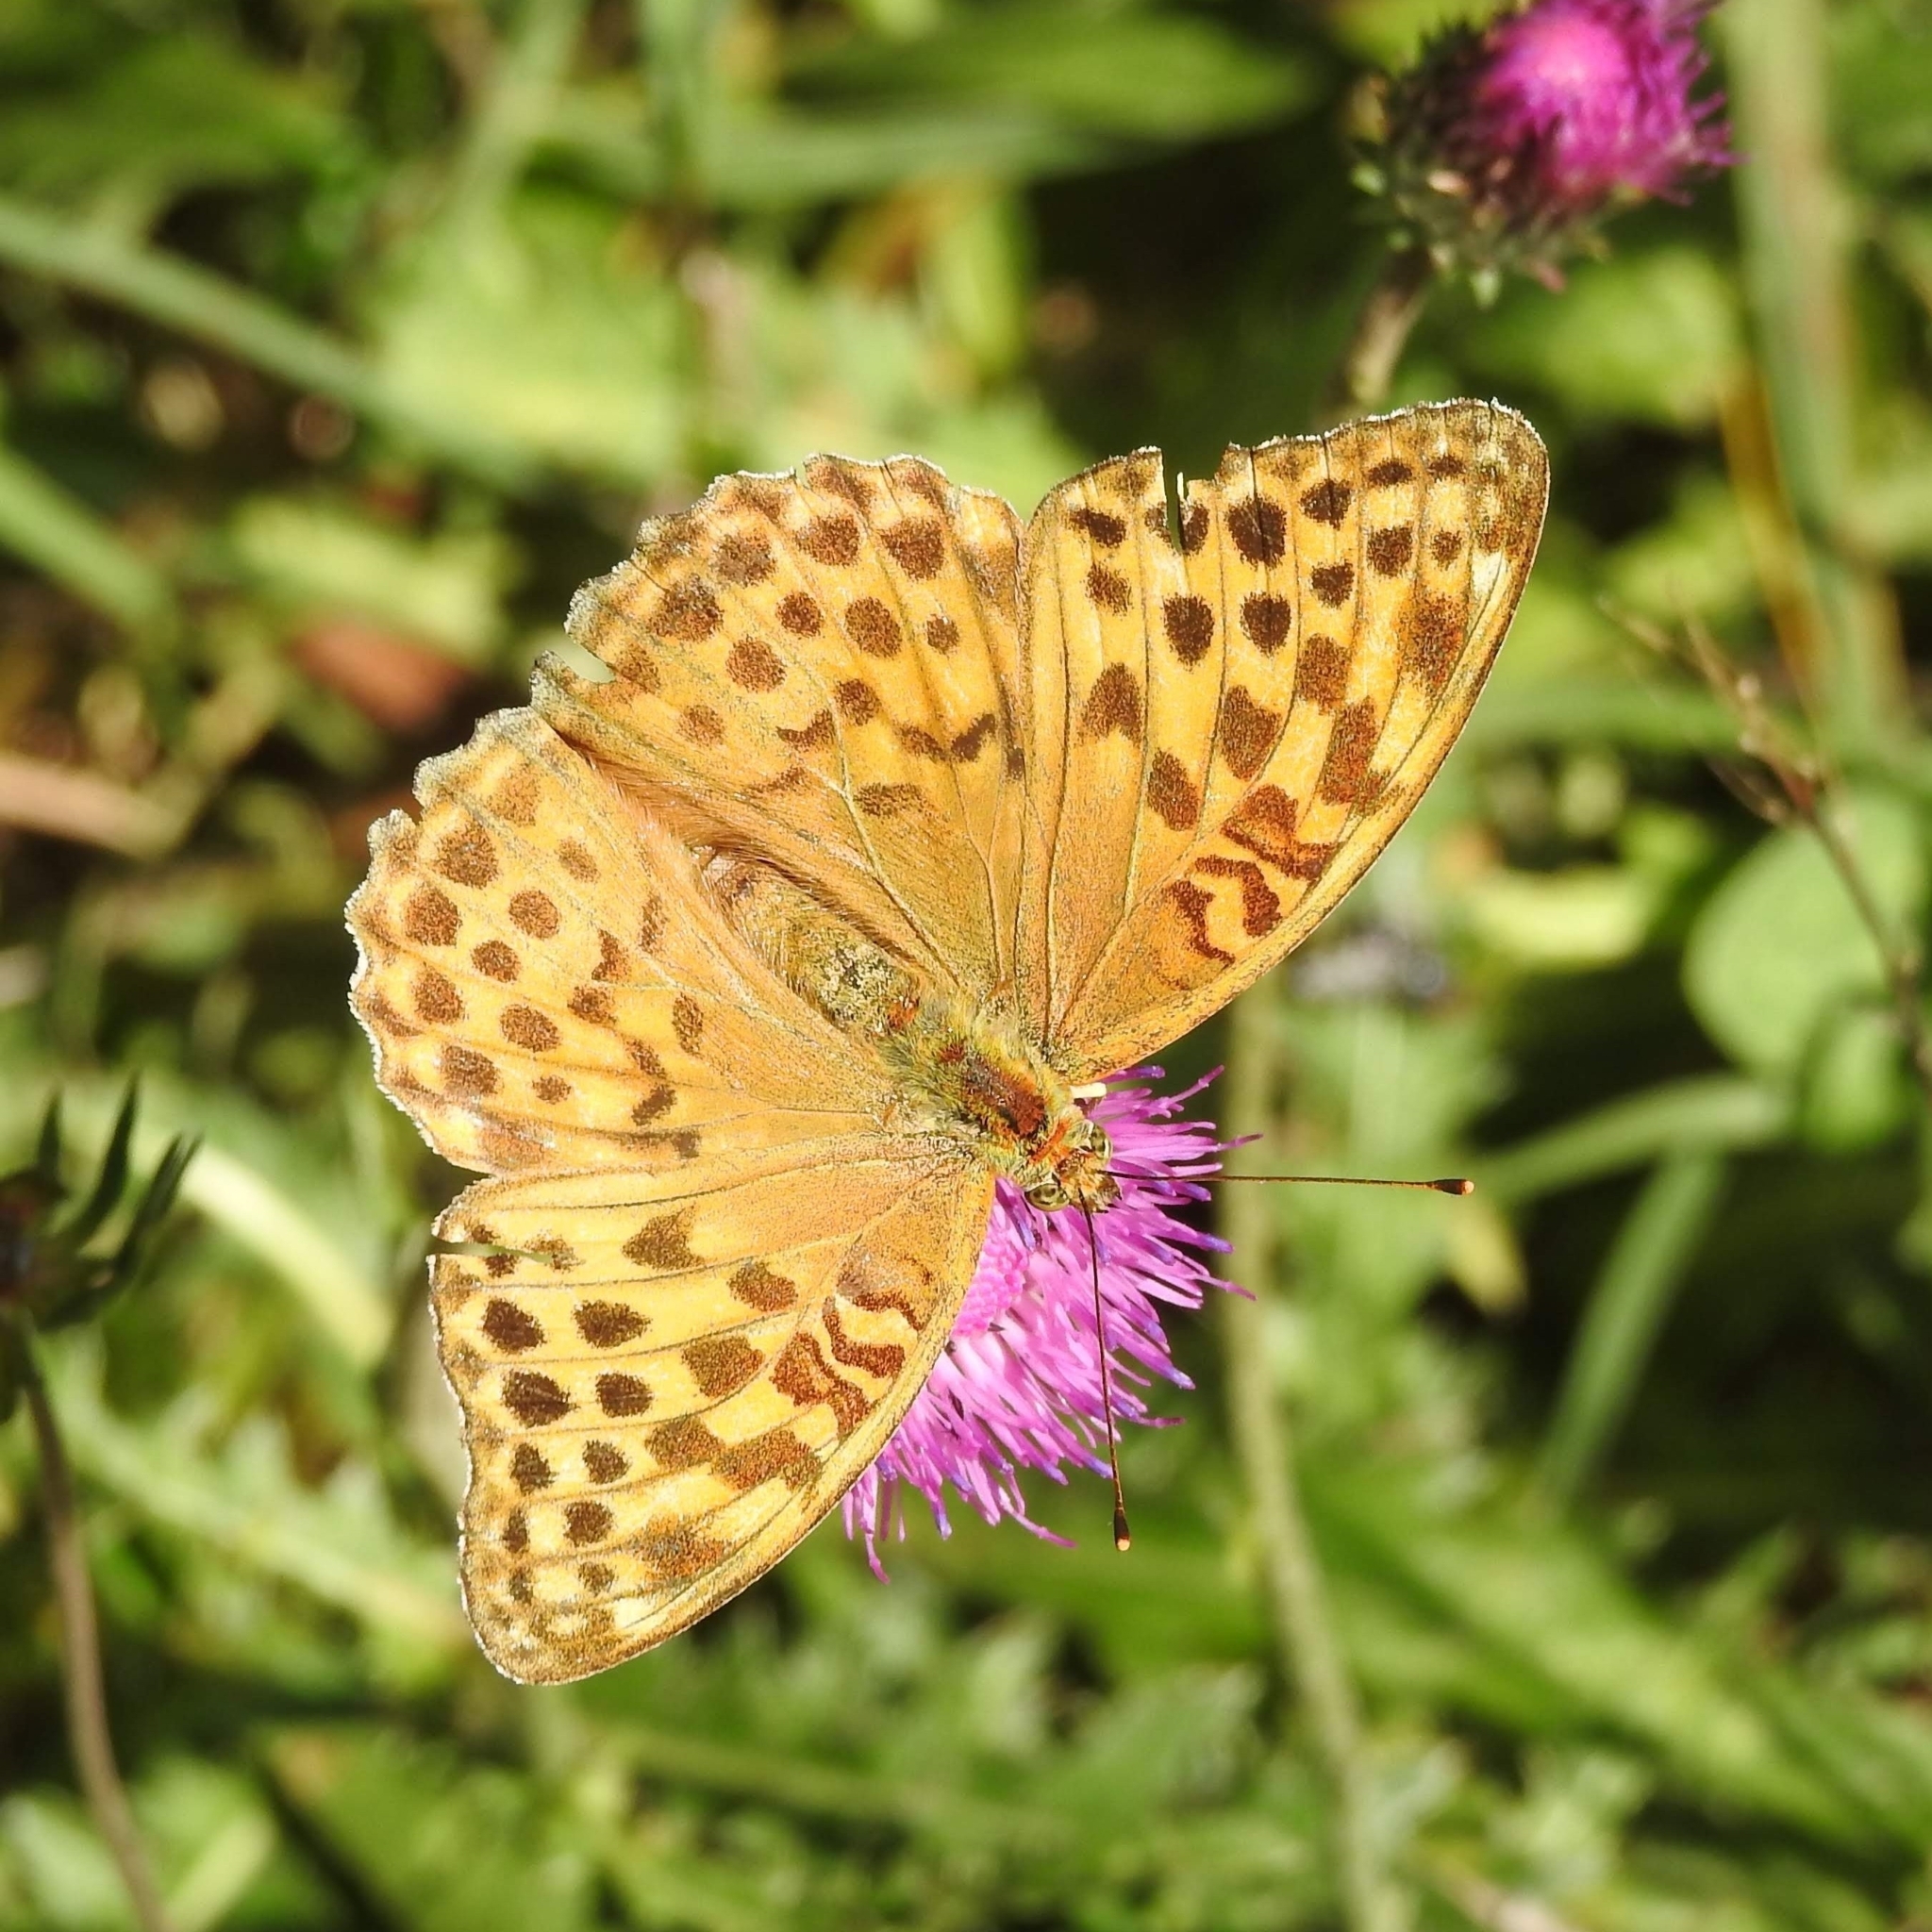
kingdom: Animalia
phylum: Arthropoda
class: Insecta
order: Lepidoptera
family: Nymphalidae
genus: Argynnis
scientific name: Argynnis paphia
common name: Silver-washed fritillary
